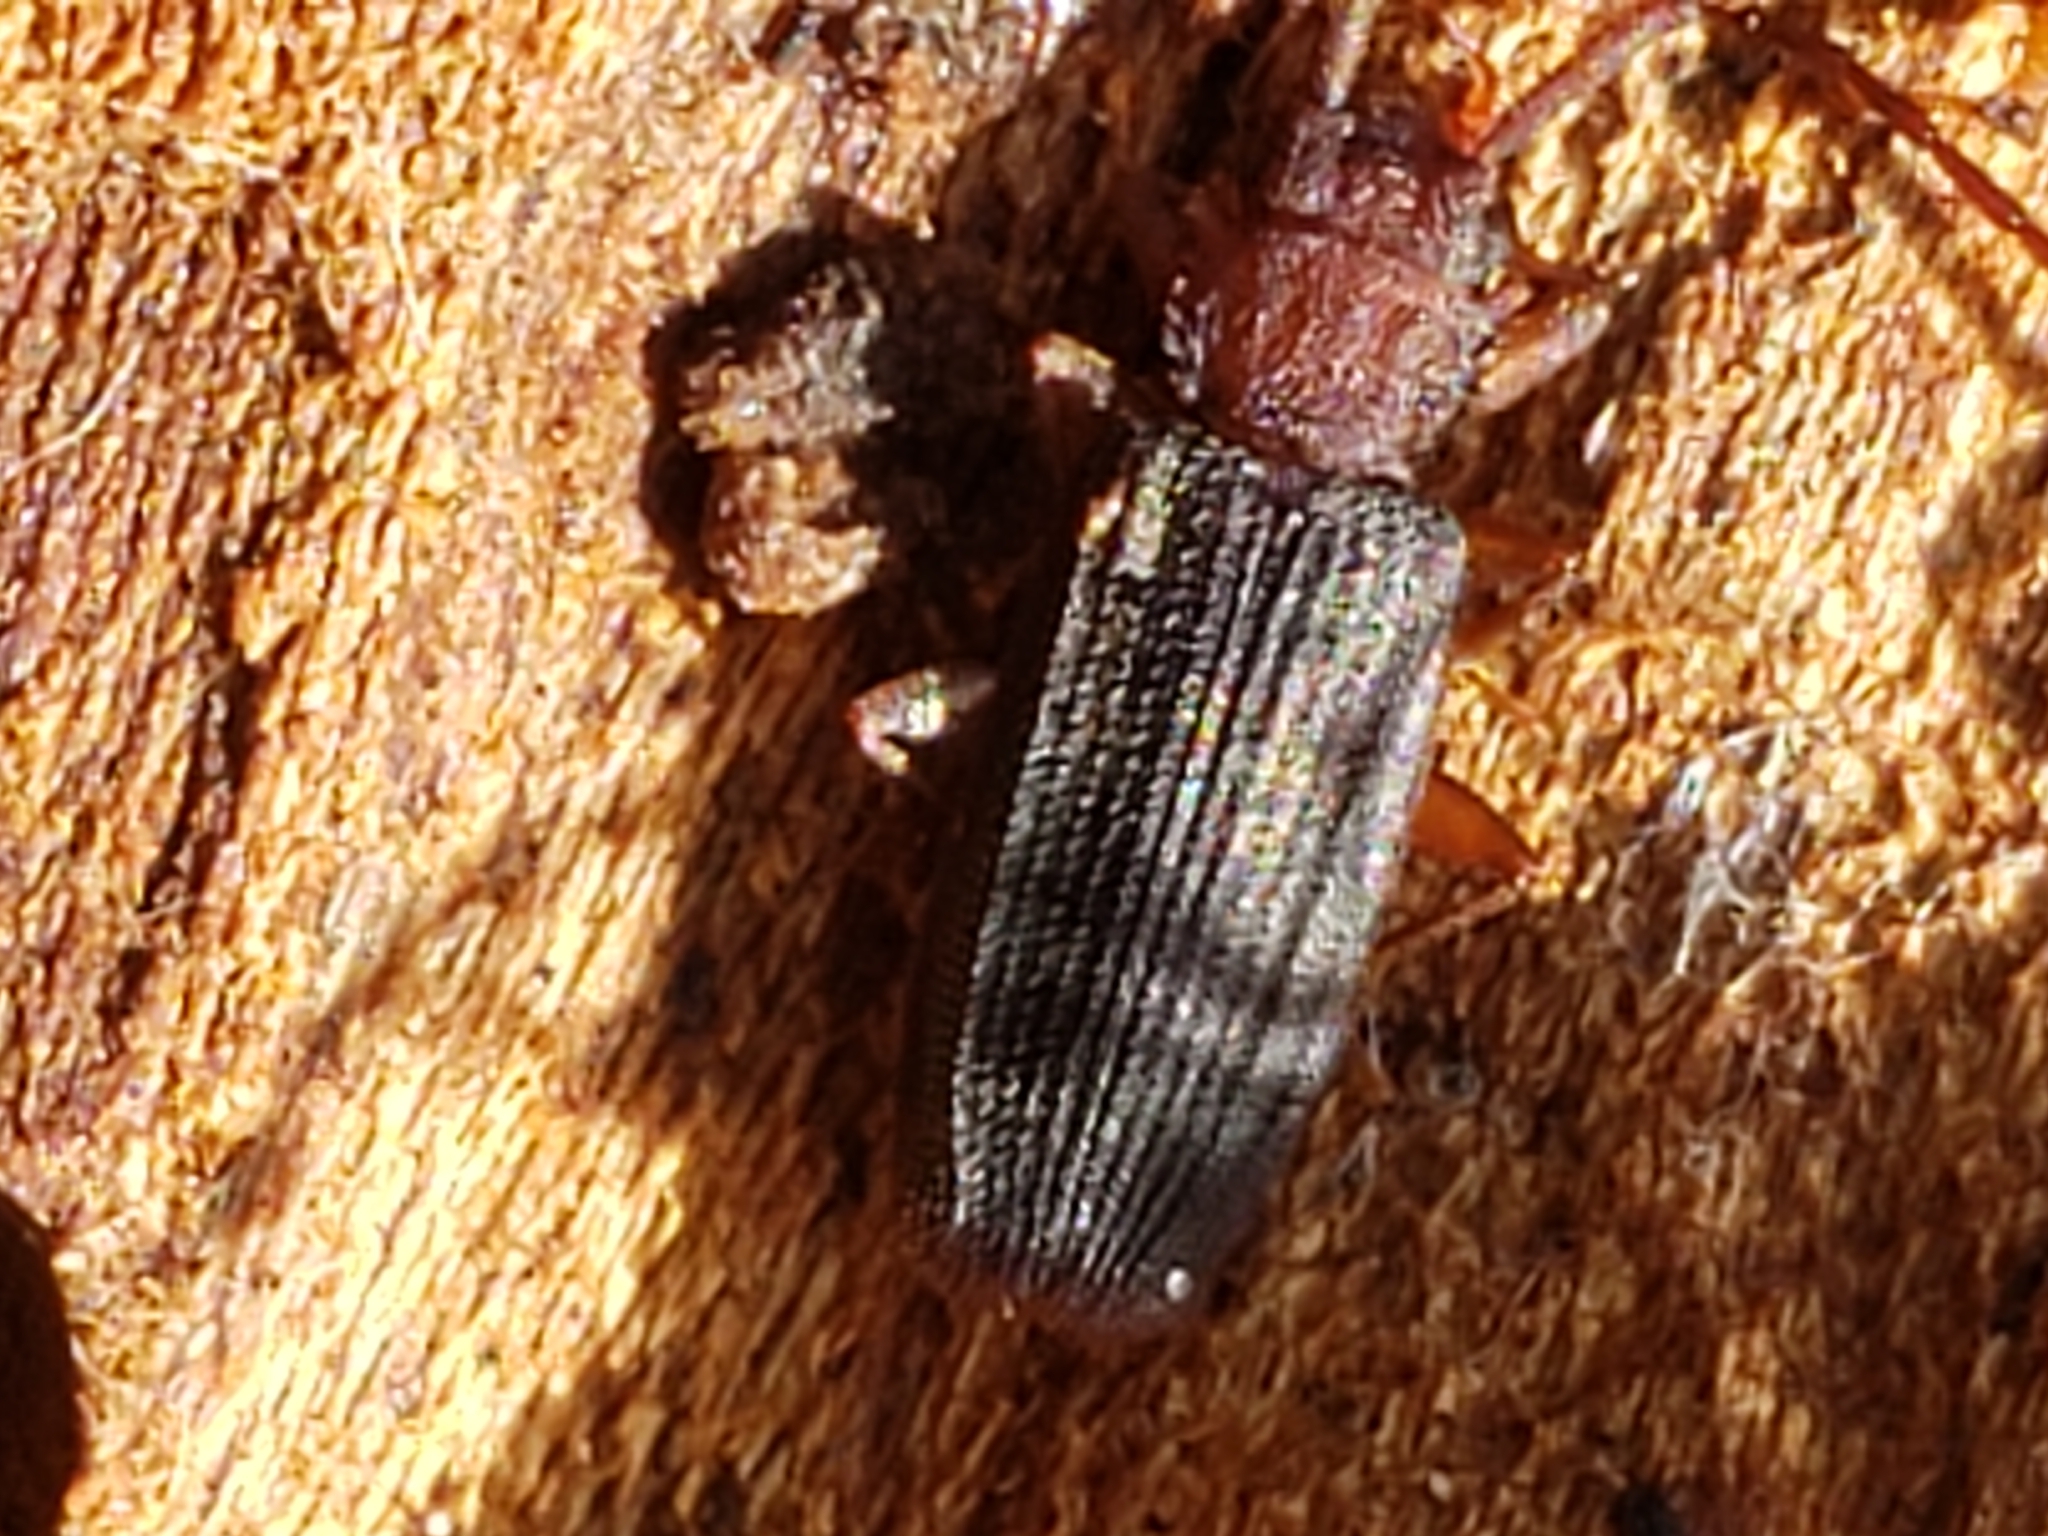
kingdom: Animalia
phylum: Arthropoda
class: Insecta
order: Coleoptera
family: Silvanidae
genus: Uleiota
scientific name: Uleiota dubia
